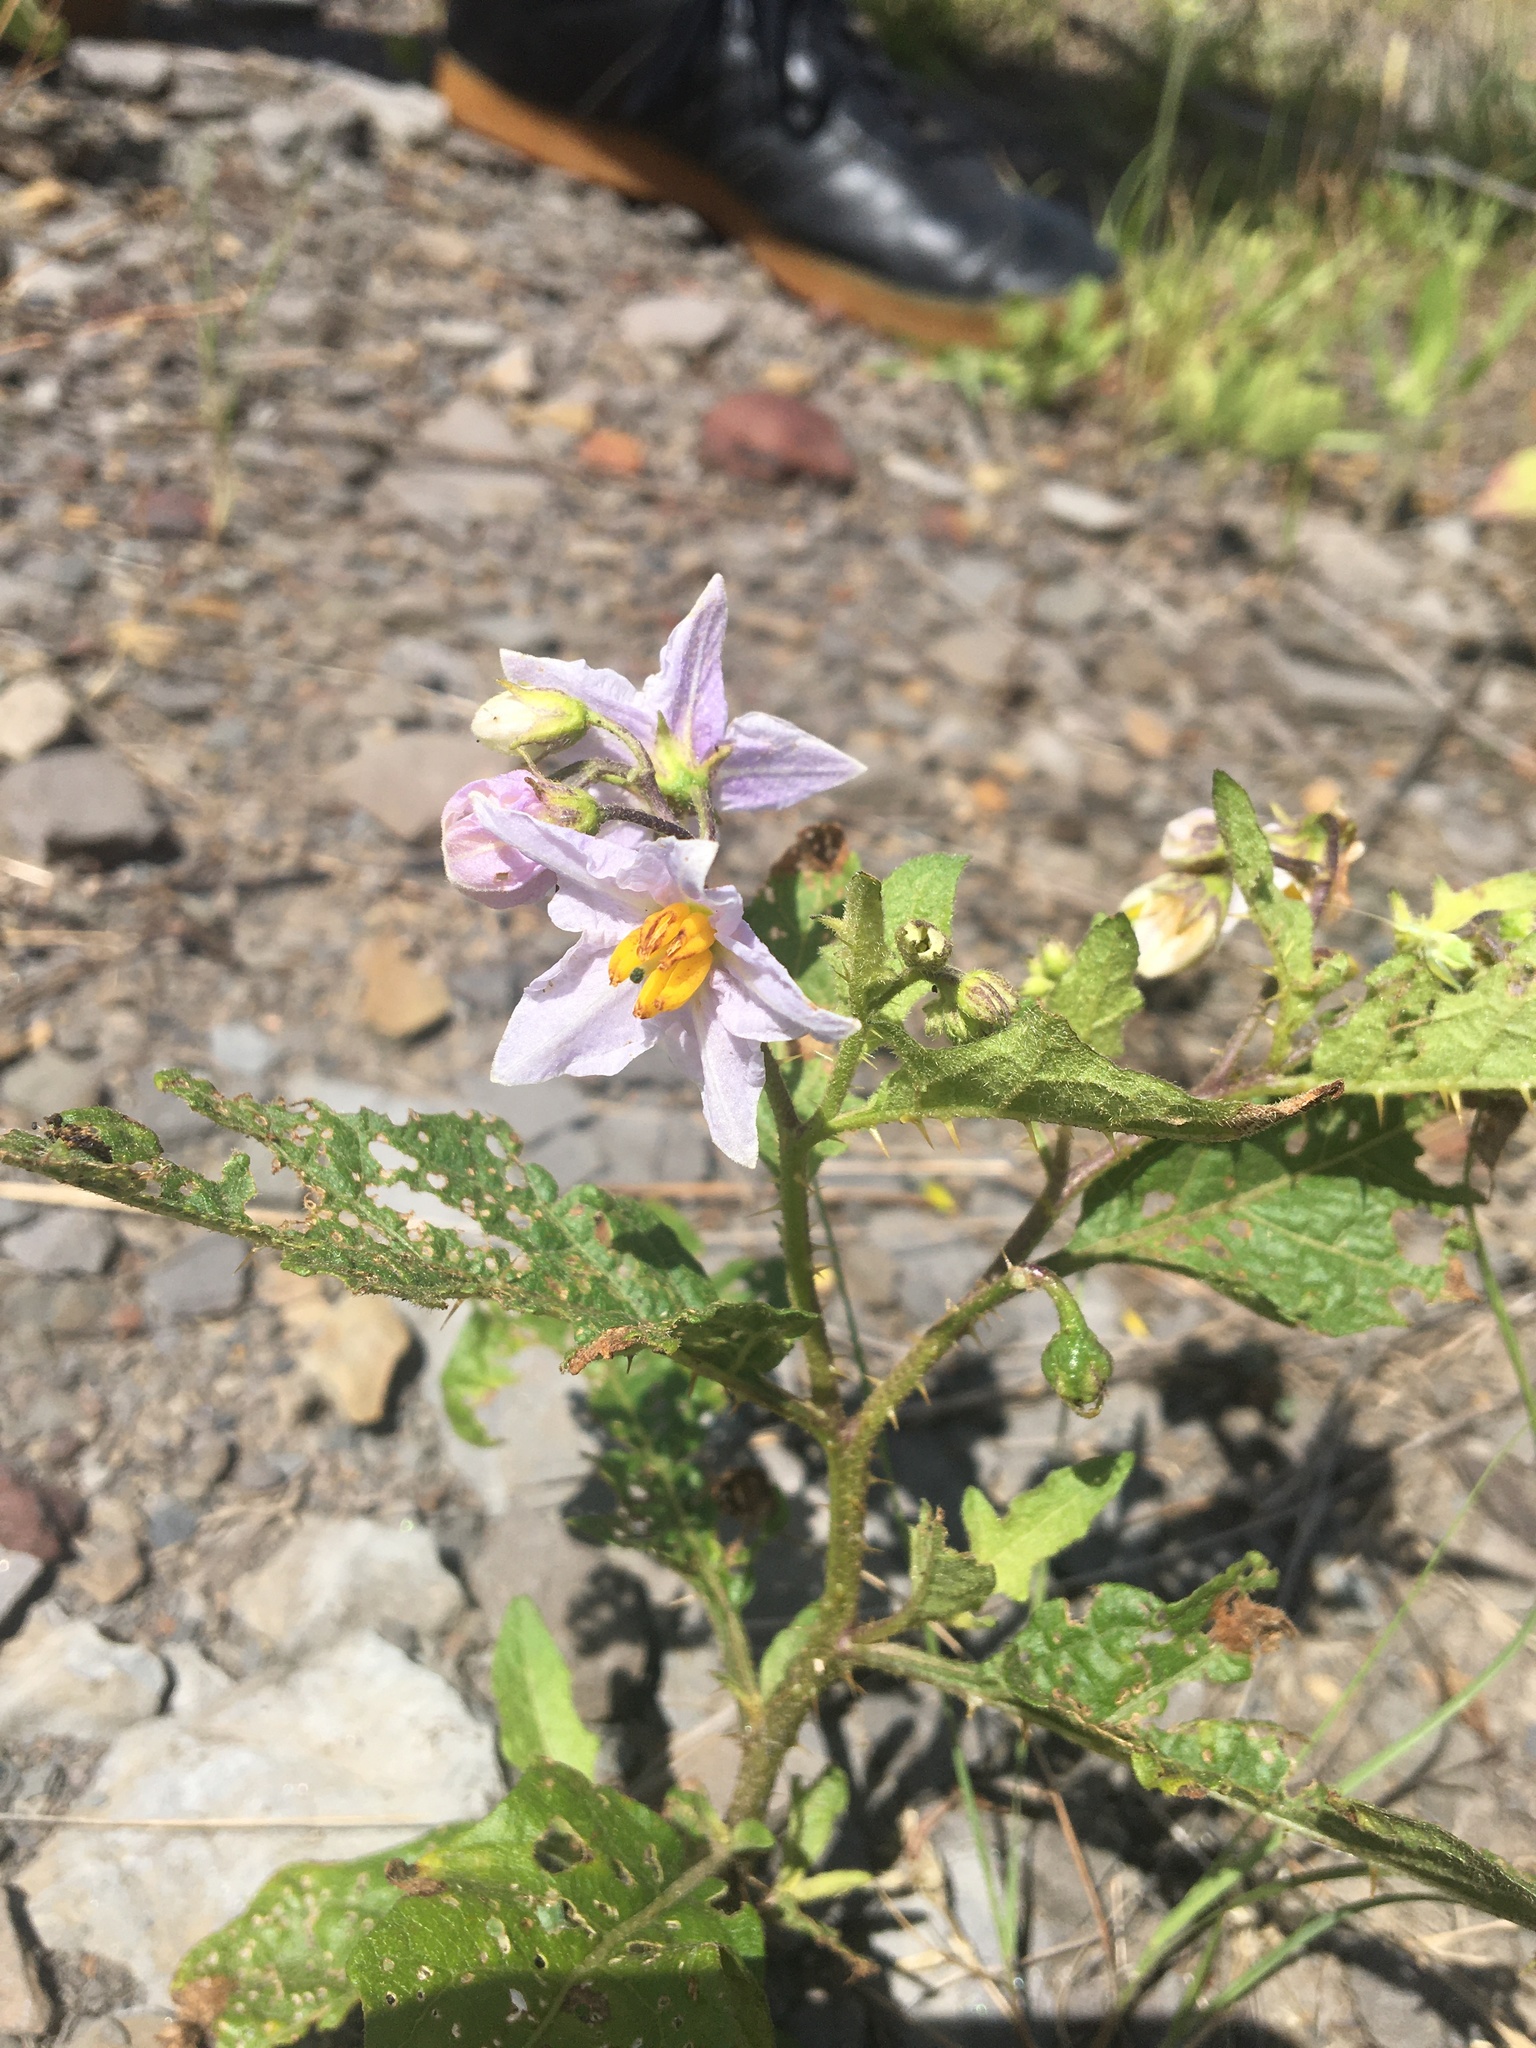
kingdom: Plantae
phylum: Tracheophyta
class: Magnoliopsida
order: Solanales
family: Solanaceae
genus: Solanum
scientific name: Solanum carolinense
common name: Horse-nettle
